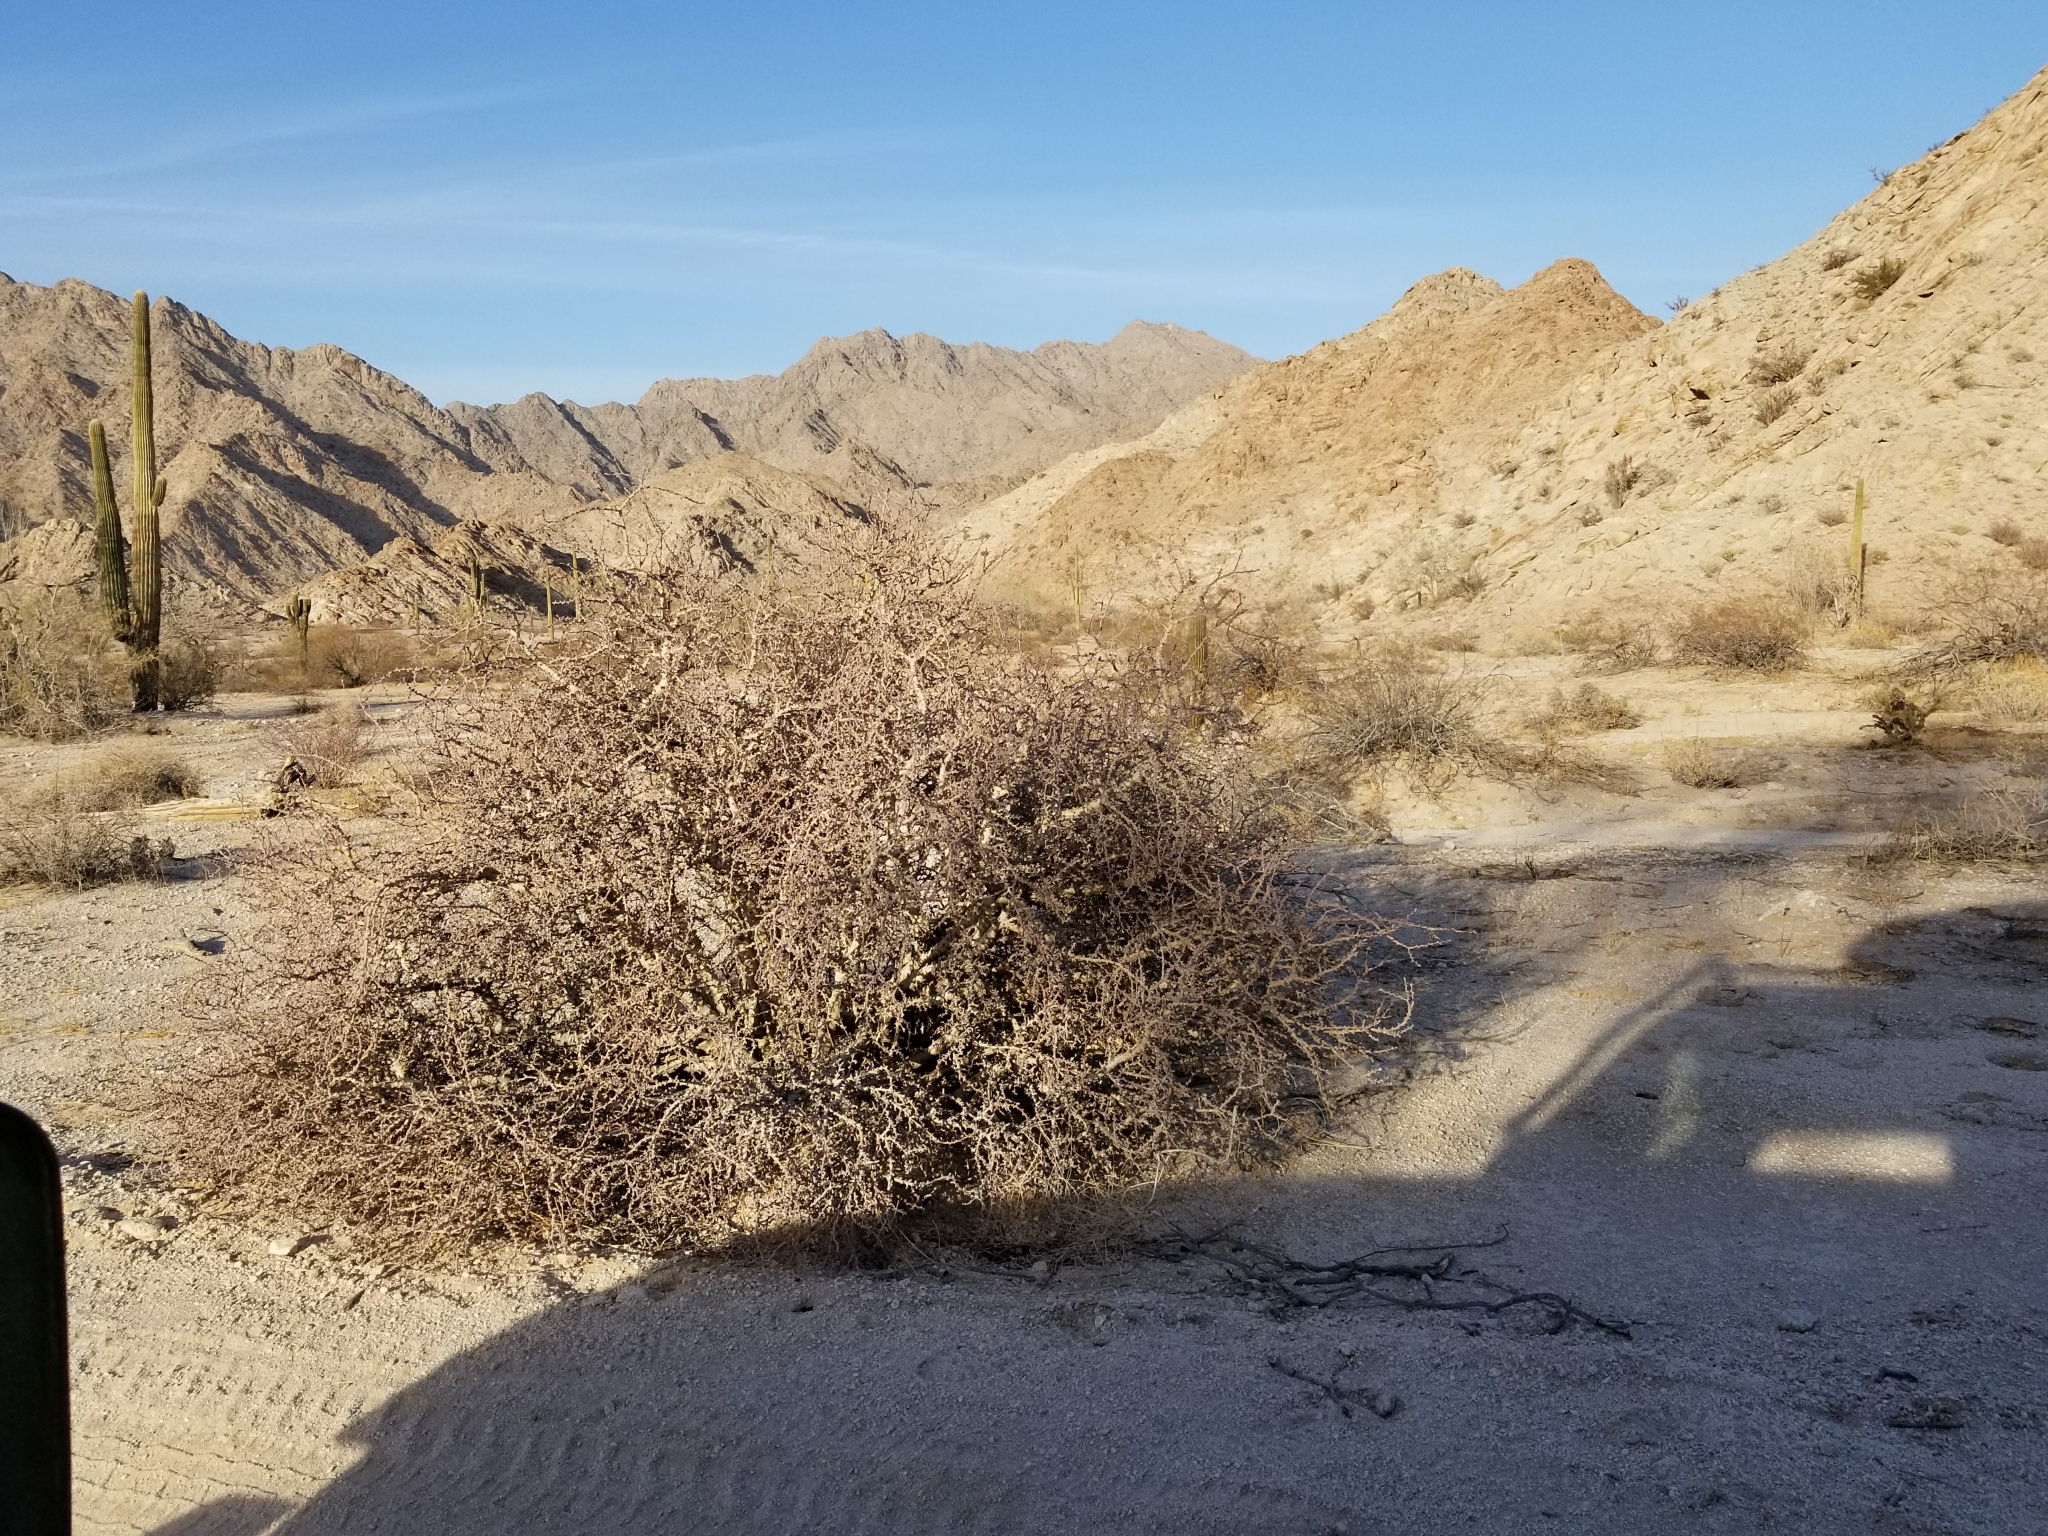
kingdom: Plantae
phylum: Tracheophyta
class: Magnoliopsida
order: Malpighiales
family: Euphorbiaceae
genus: Jatropha
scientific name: Jatropha cuneata
